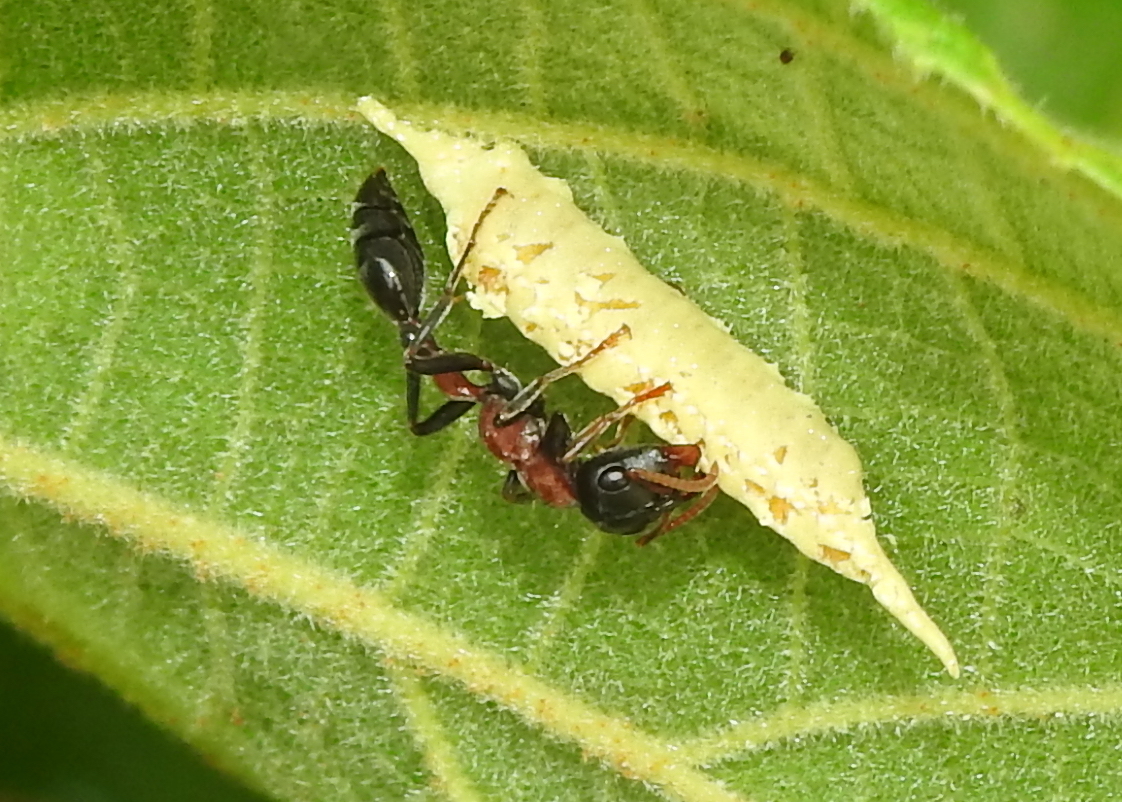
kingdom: Animalia
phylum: Arthropoda
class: Insecta
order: Hymenoptera
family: Formicidae
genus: Tetraponera
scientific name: Tetraponera rufonigra
